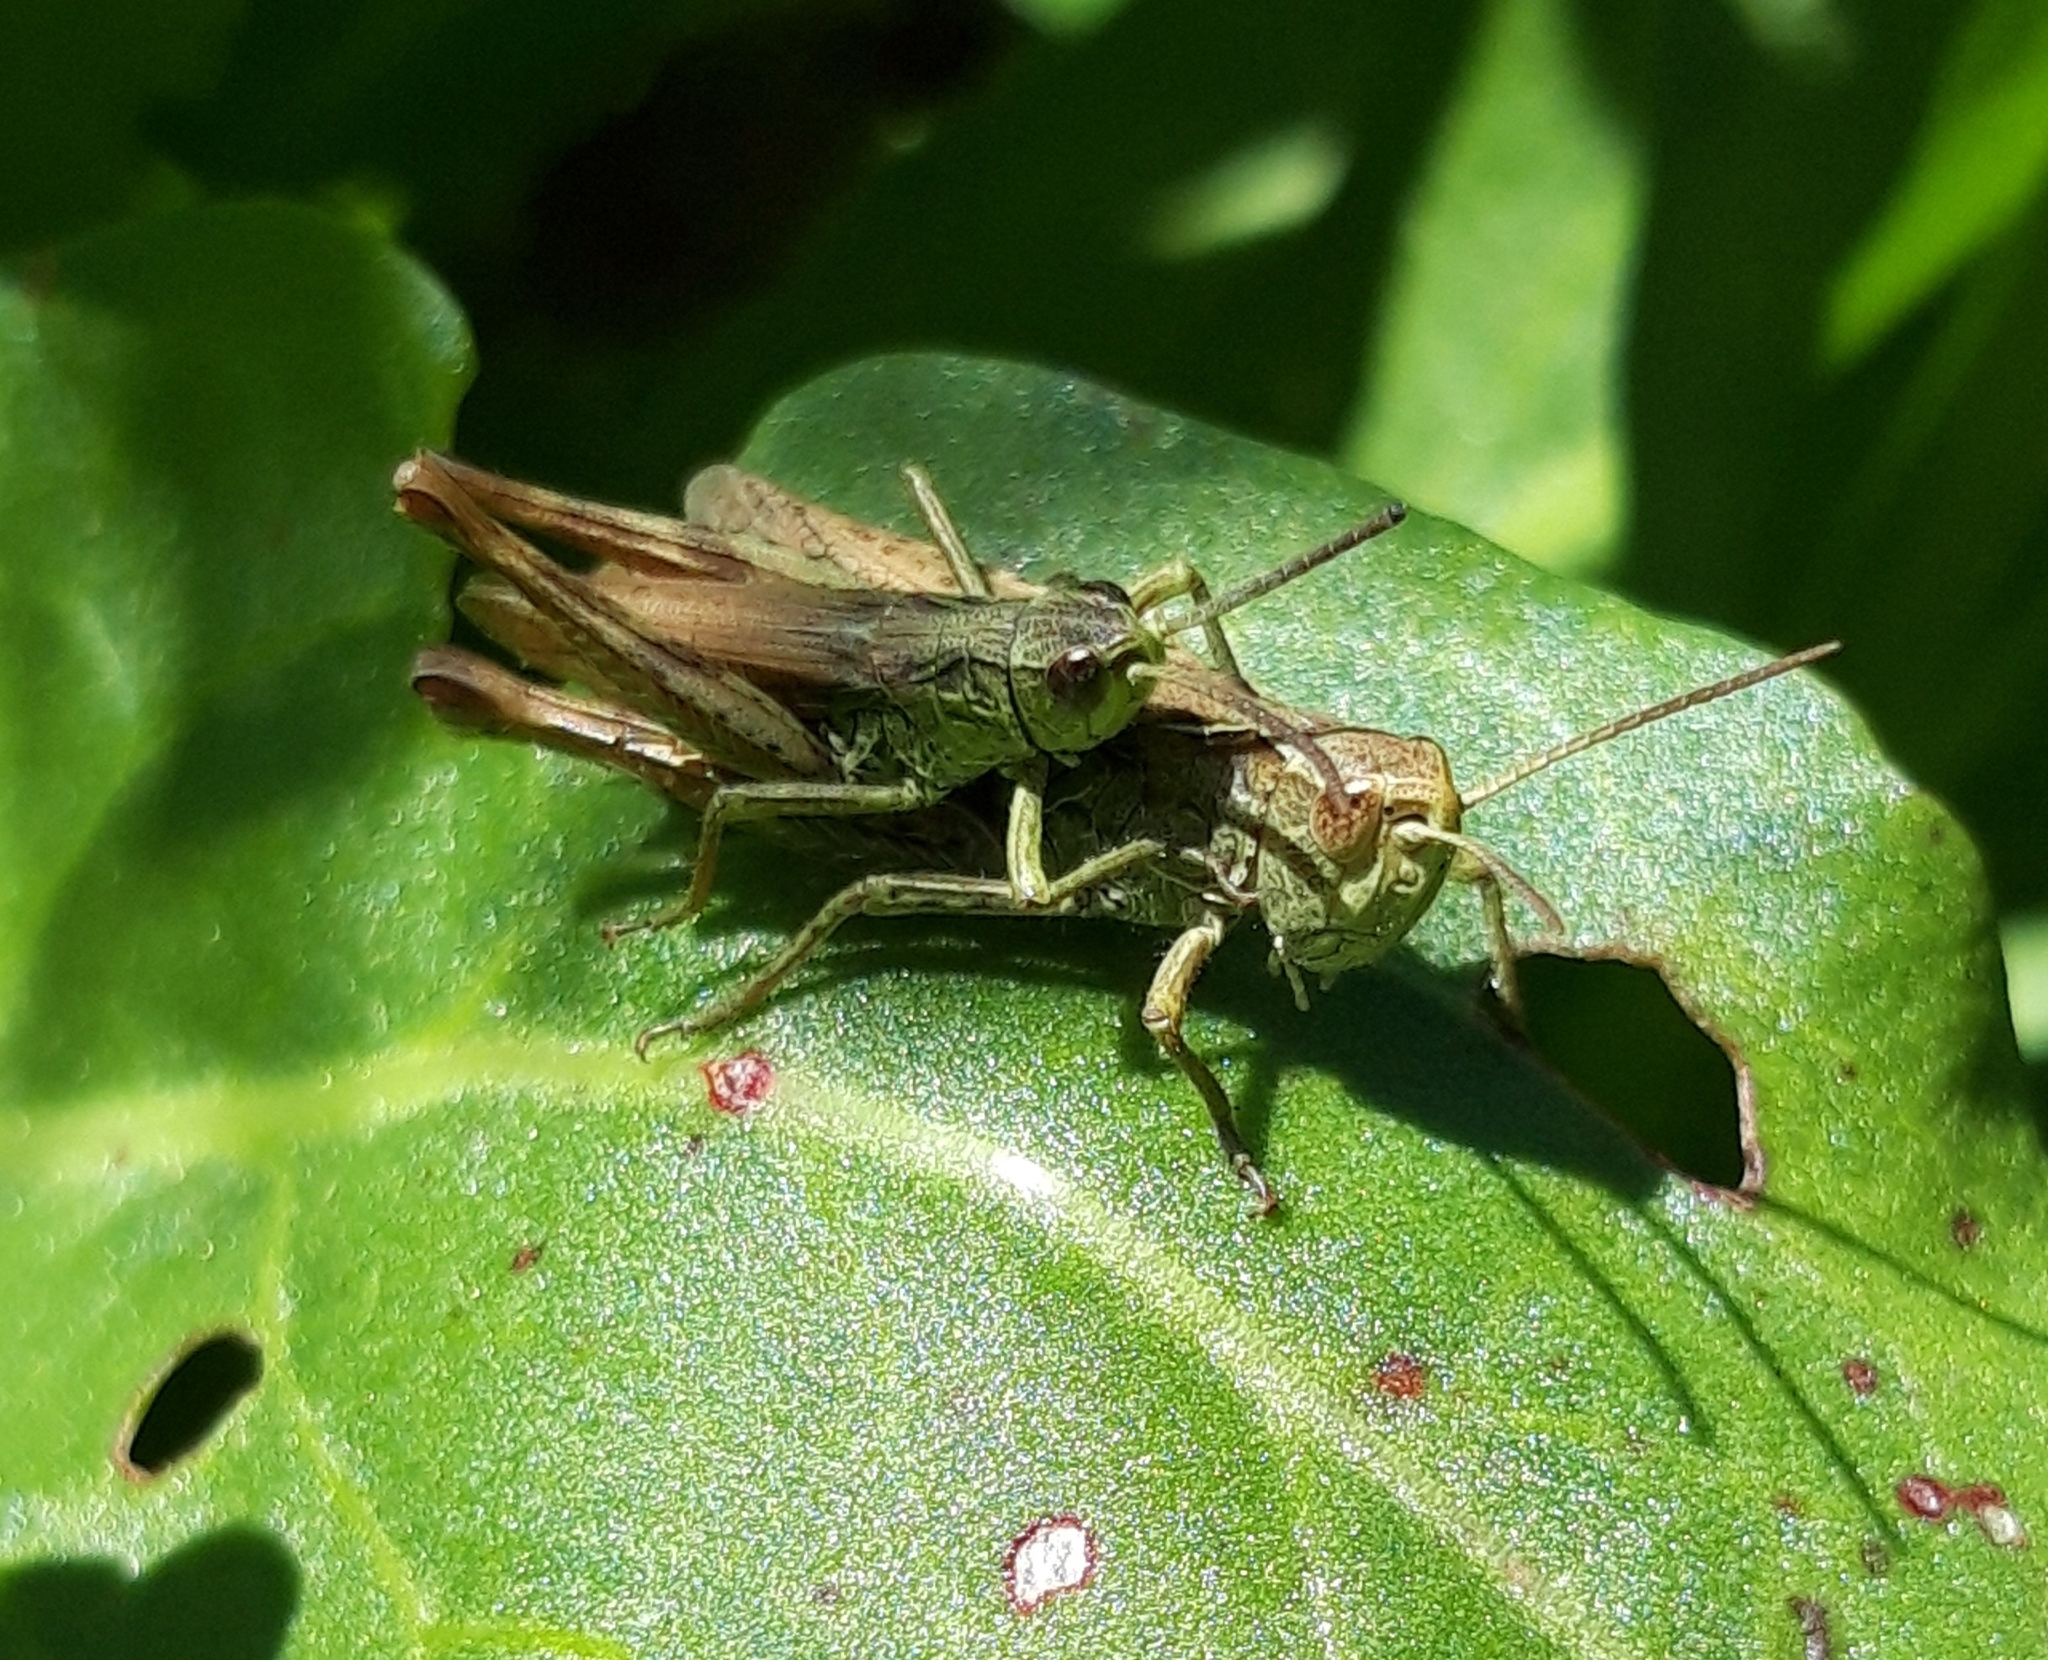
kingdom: Animalia
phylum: Arthropoda
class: Insecta
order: Orthoptera
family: Acrididae
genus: Chorthippus
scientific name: Chorthippus apricarius
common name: Upland field grasshopper
